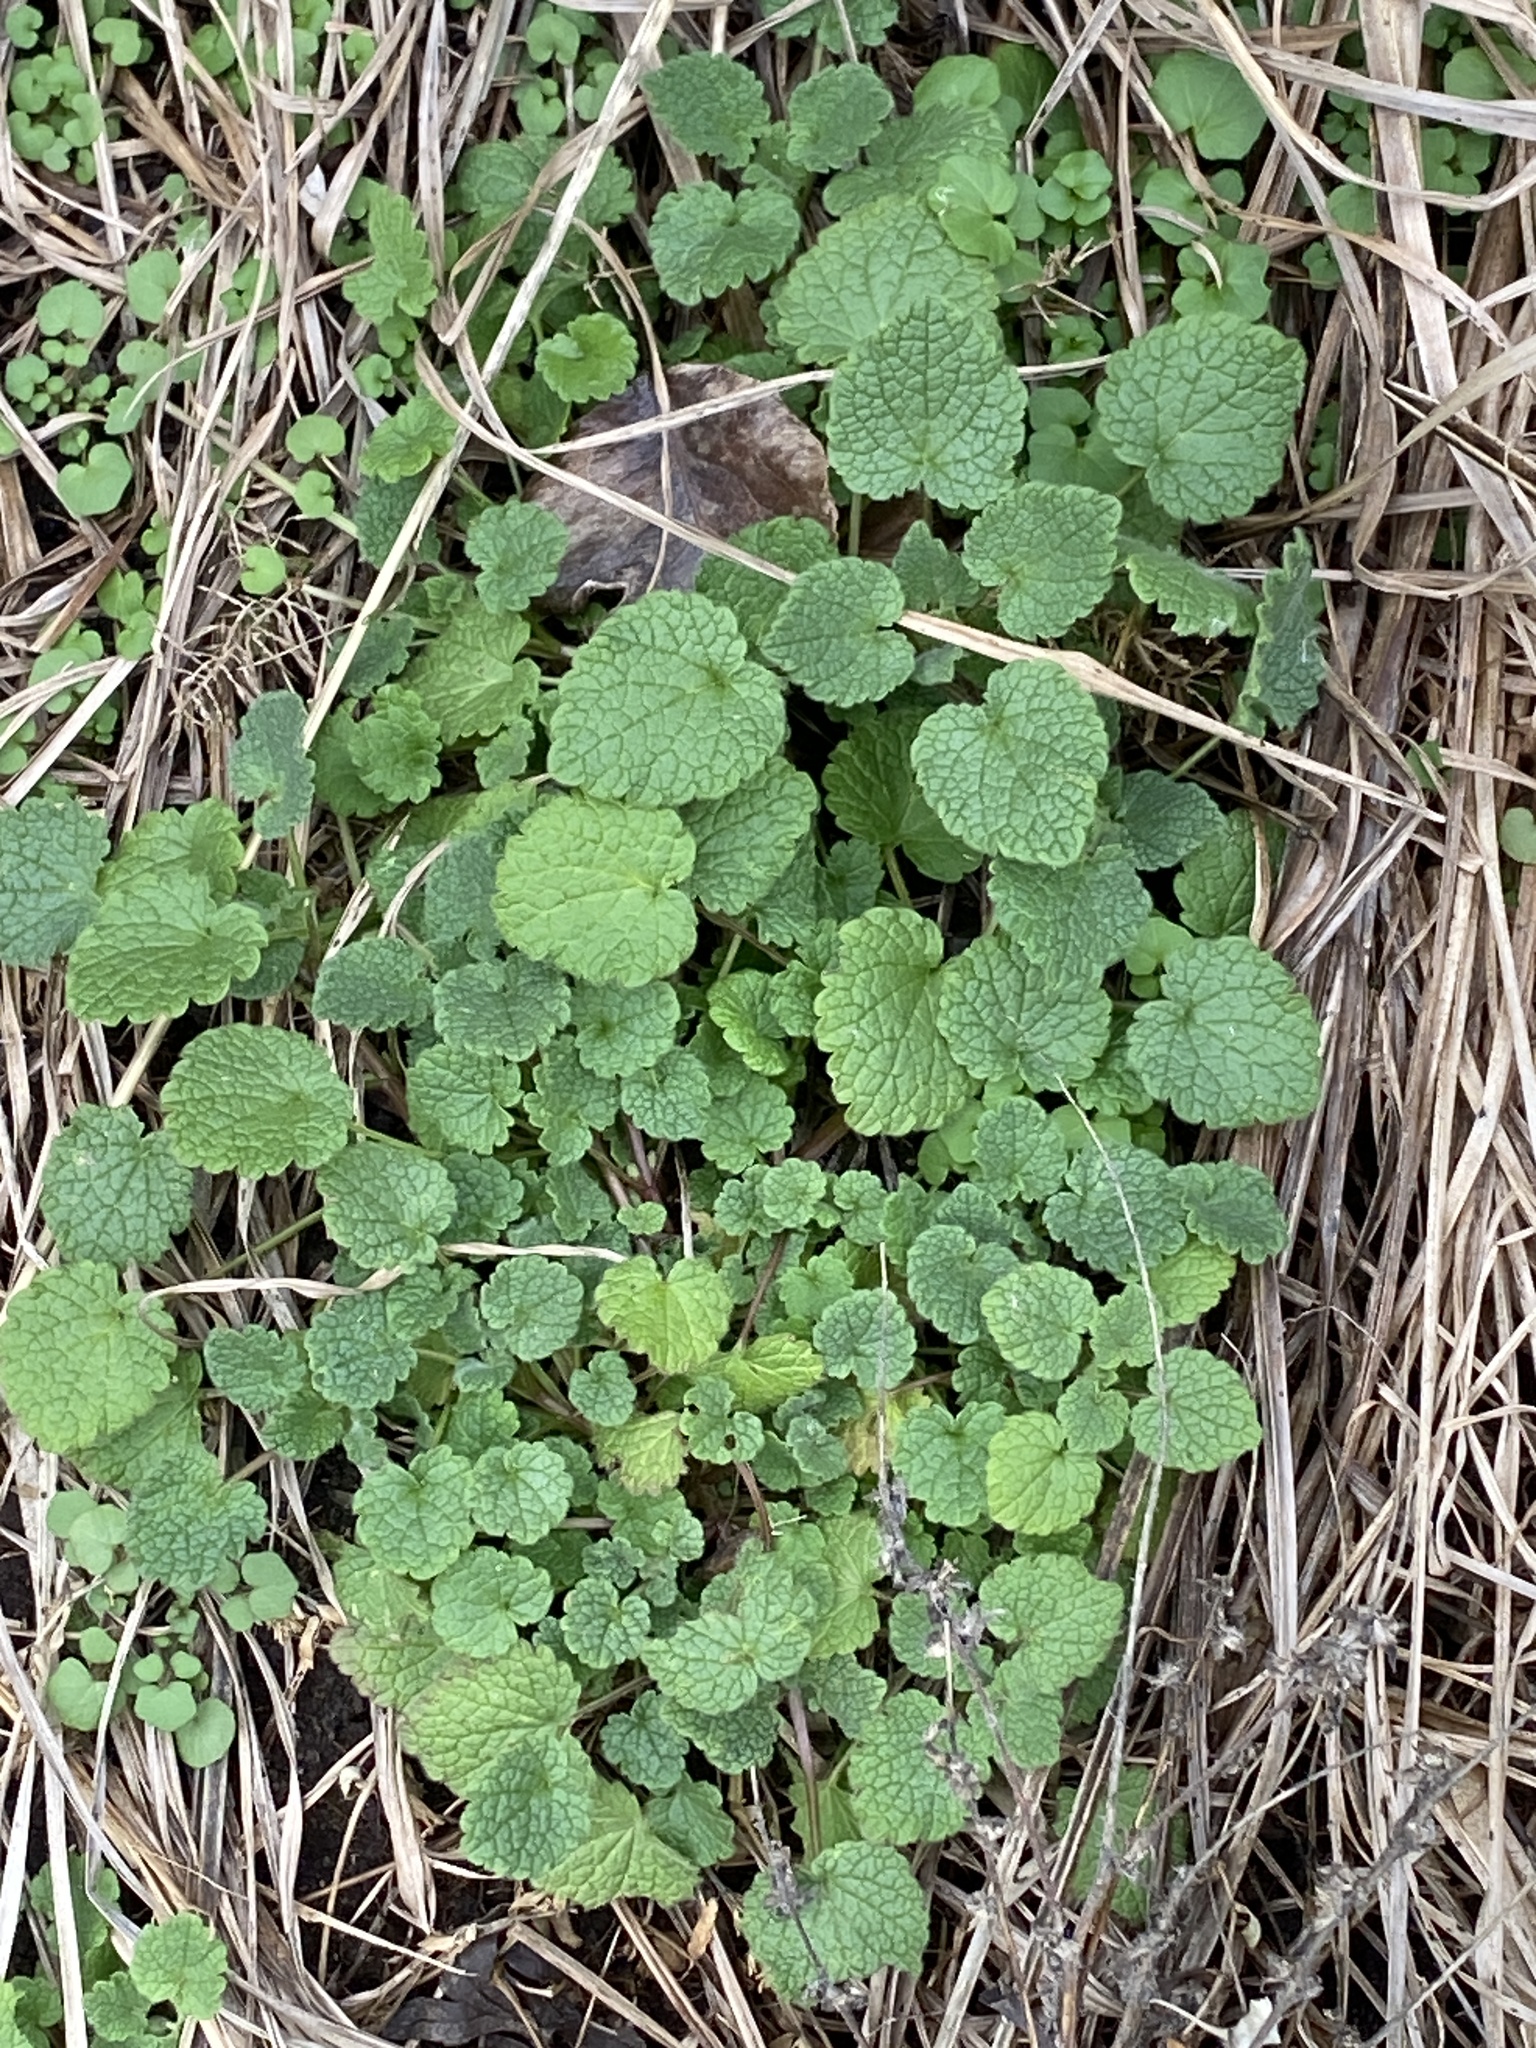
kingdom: Plantae
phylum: Tracheophyta
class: Magnoliopsida
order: Lamiales
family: Lamiaceae
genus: Lamium
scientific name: Lamium purpureum
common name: Red dead-nettle
